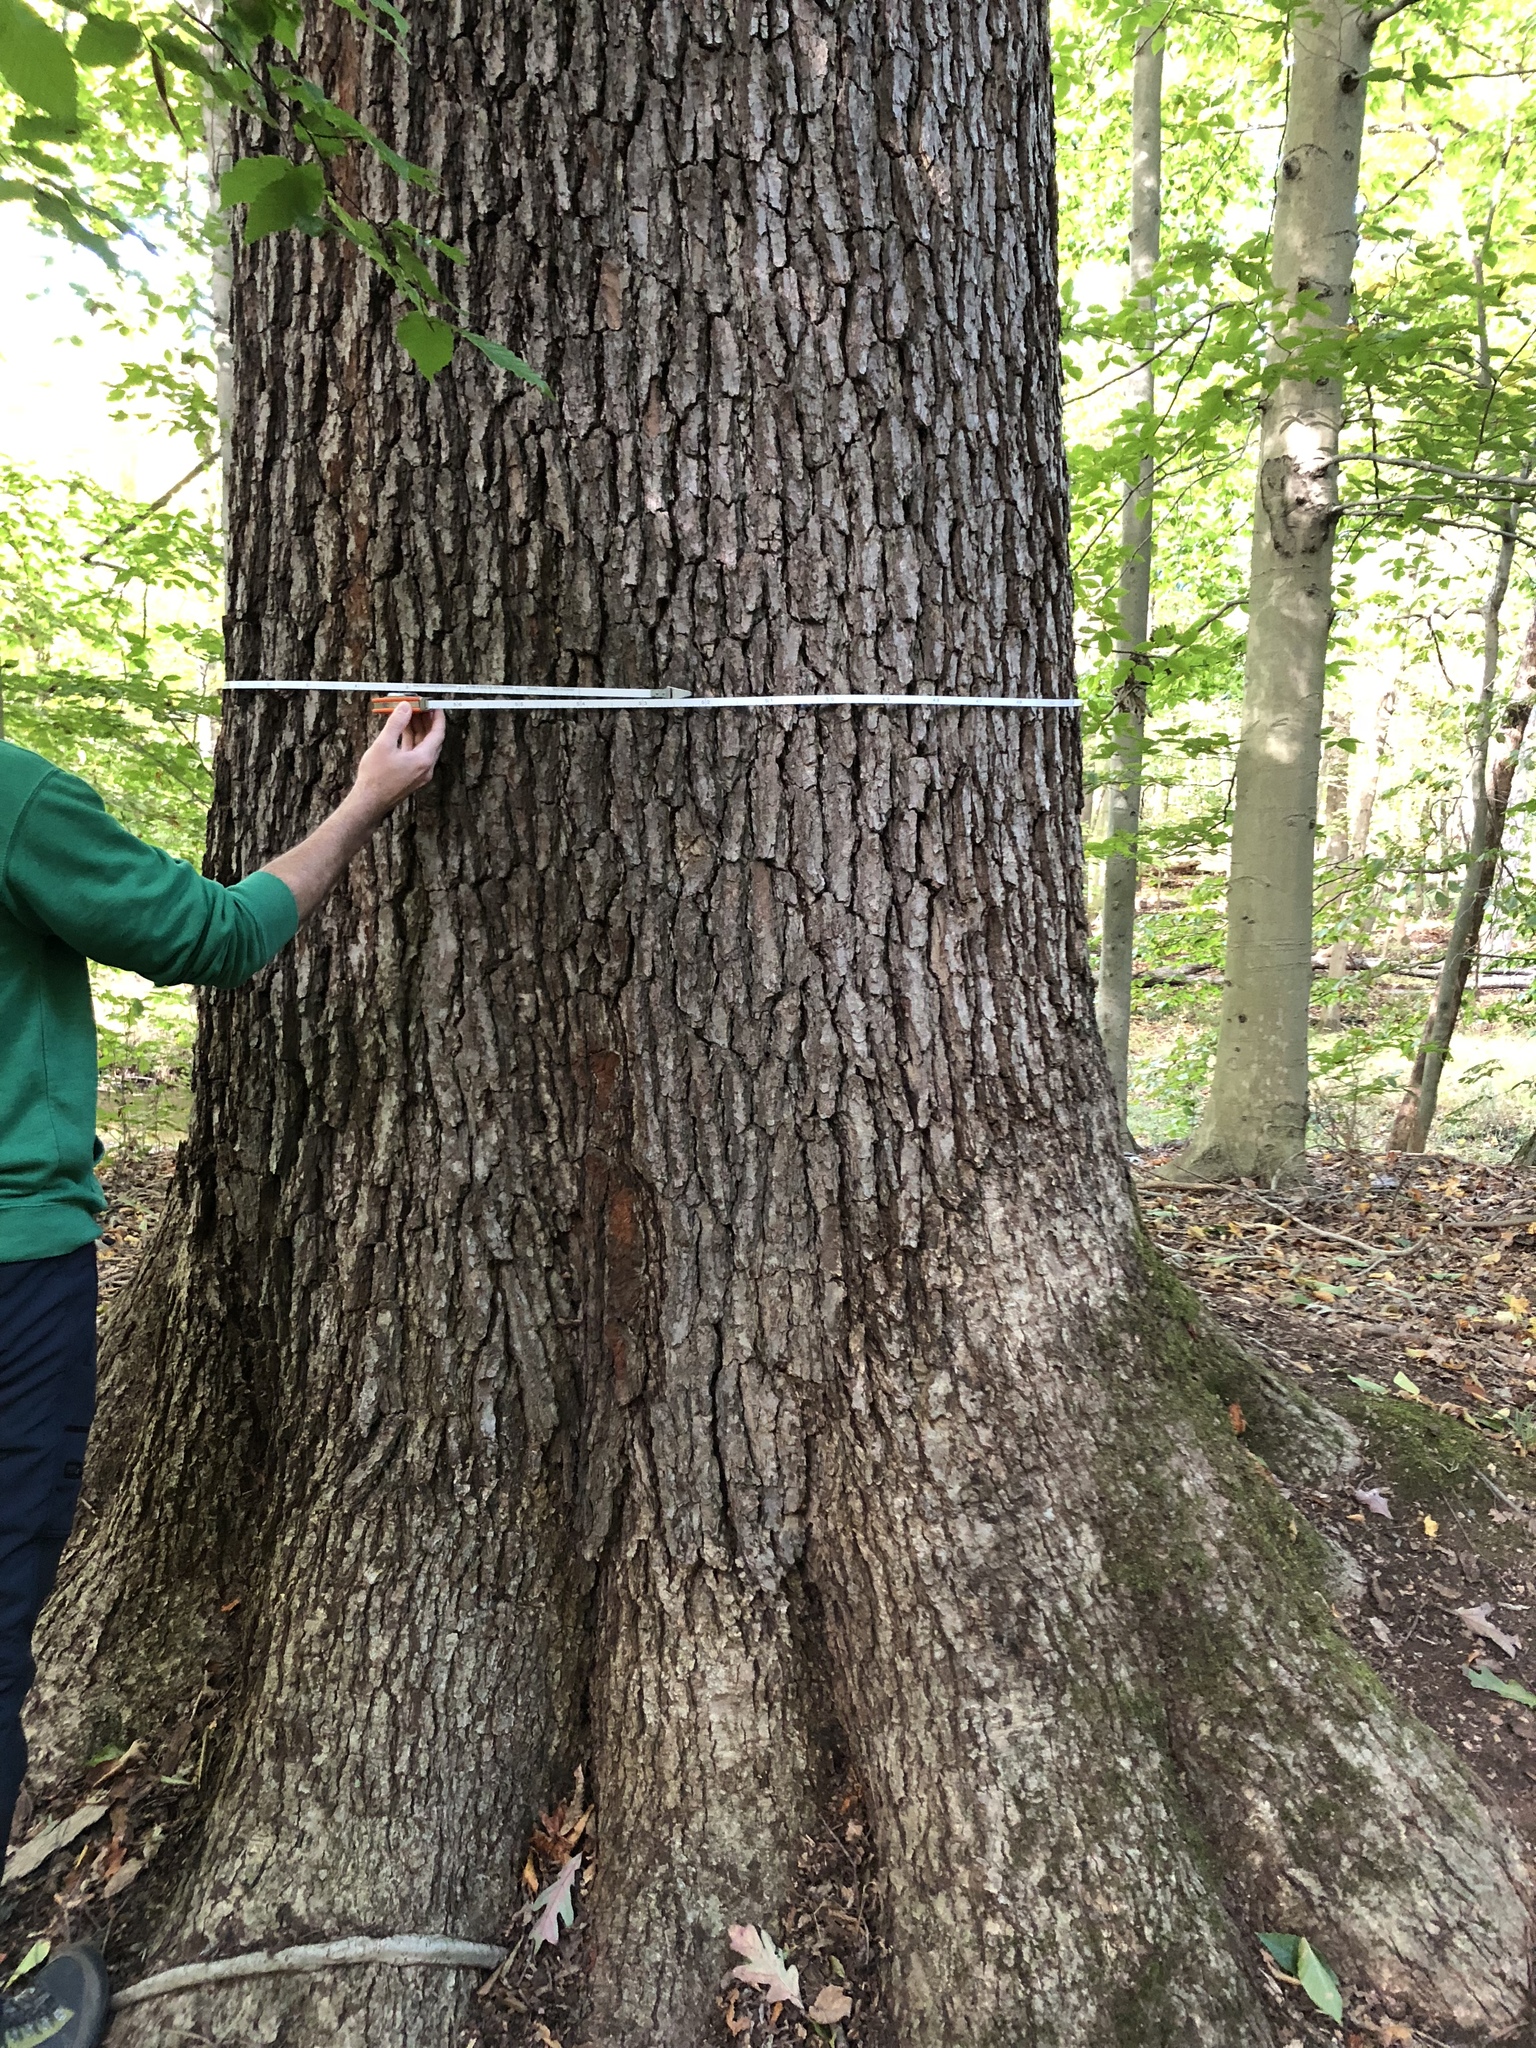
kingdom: Plantae
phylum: Tracheophyta
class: Magnoliopsida
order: Fagales
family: Fagaceae
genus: Quercus
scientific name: Quercus alba
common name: White oak
